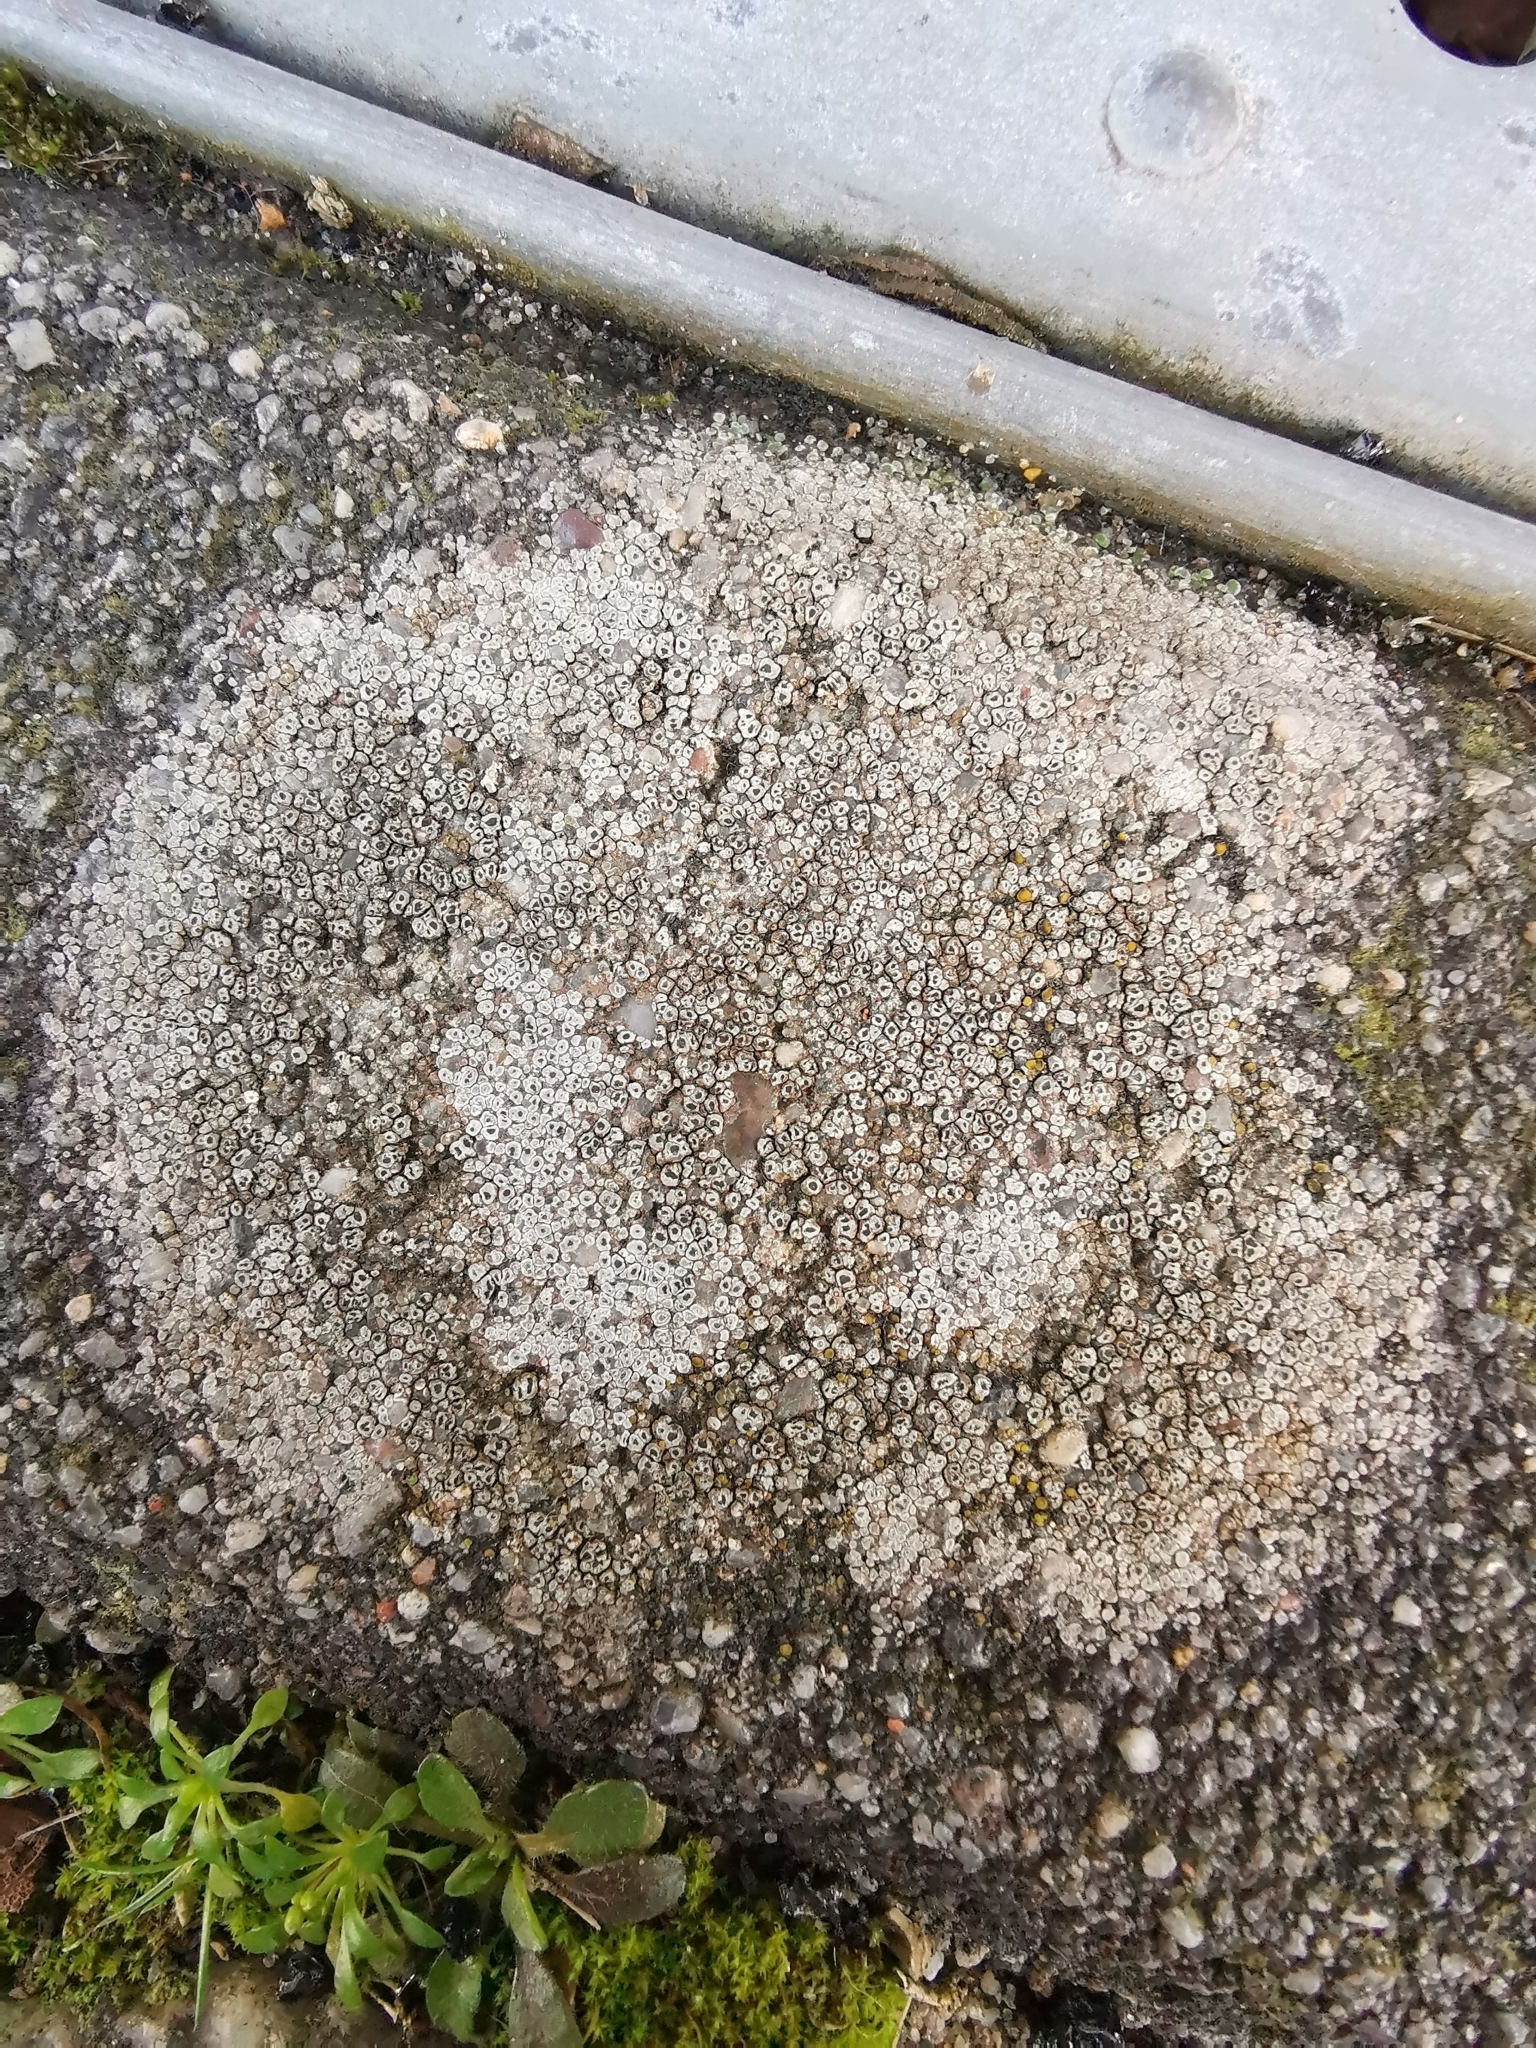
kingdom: Fungi
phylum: Ascomycota
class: Lecanoromycetes
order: Pertusariales
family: Megasporaceae
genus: Circinaria
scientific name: Circinaria contorta
